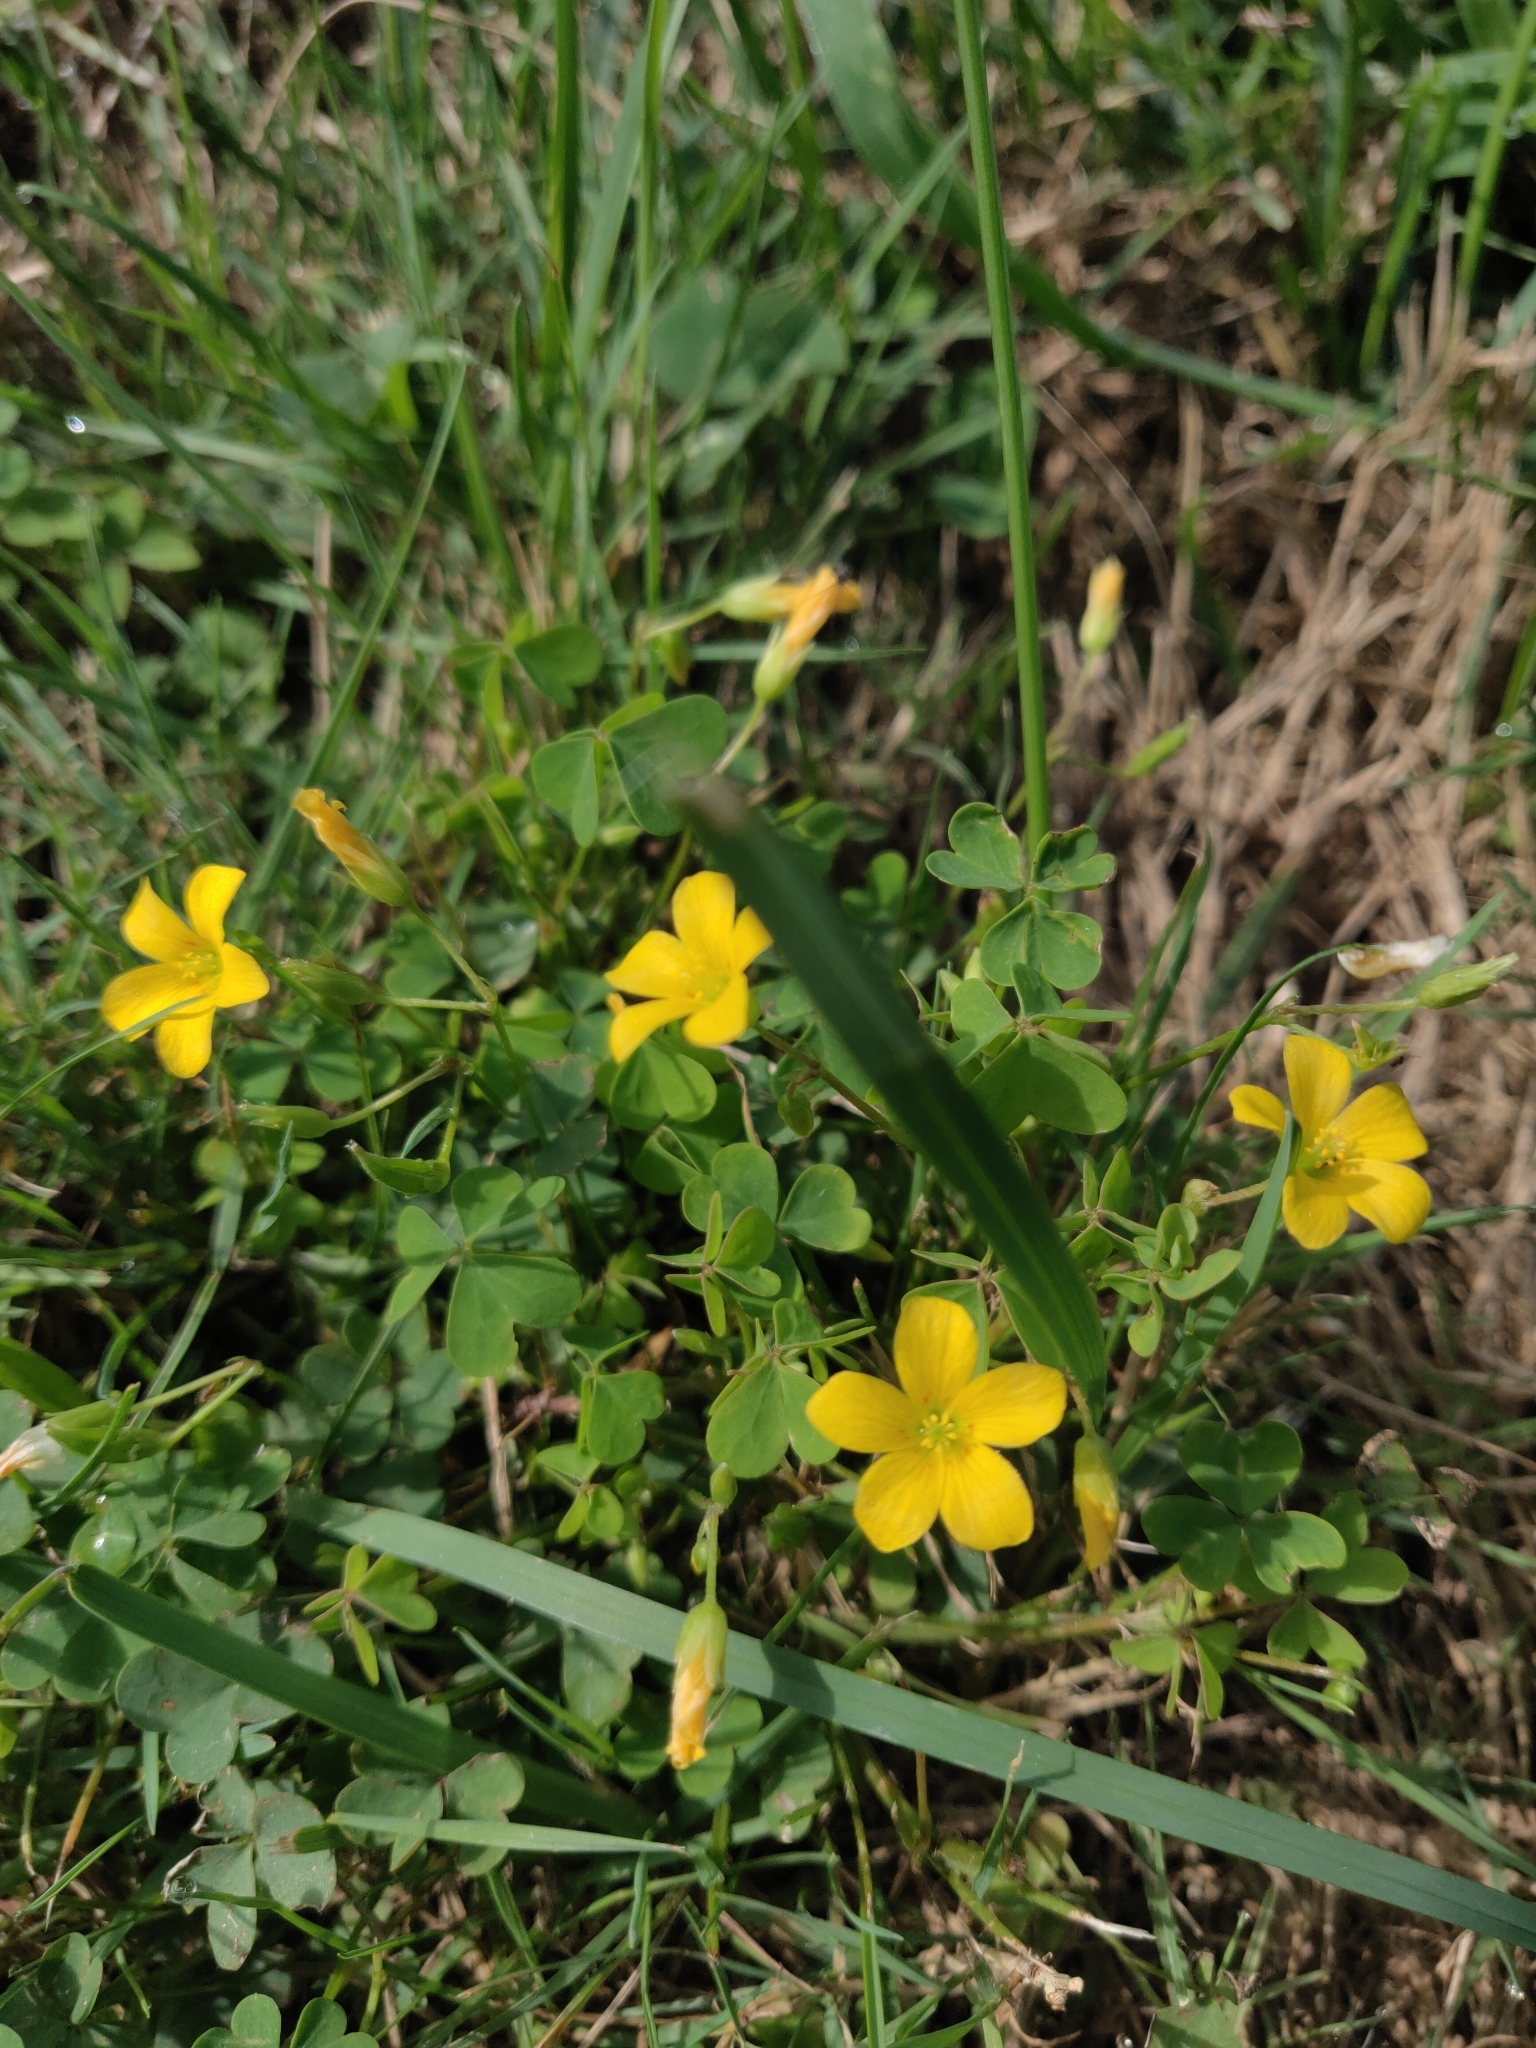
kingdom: Plantae
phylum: Tracheophyta
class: Magnoliopsida
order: Oxalidales
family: Oxalidaceae
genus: Oxalis
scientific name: Oxalis dillenii
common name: Sussex yellow-sorrel
